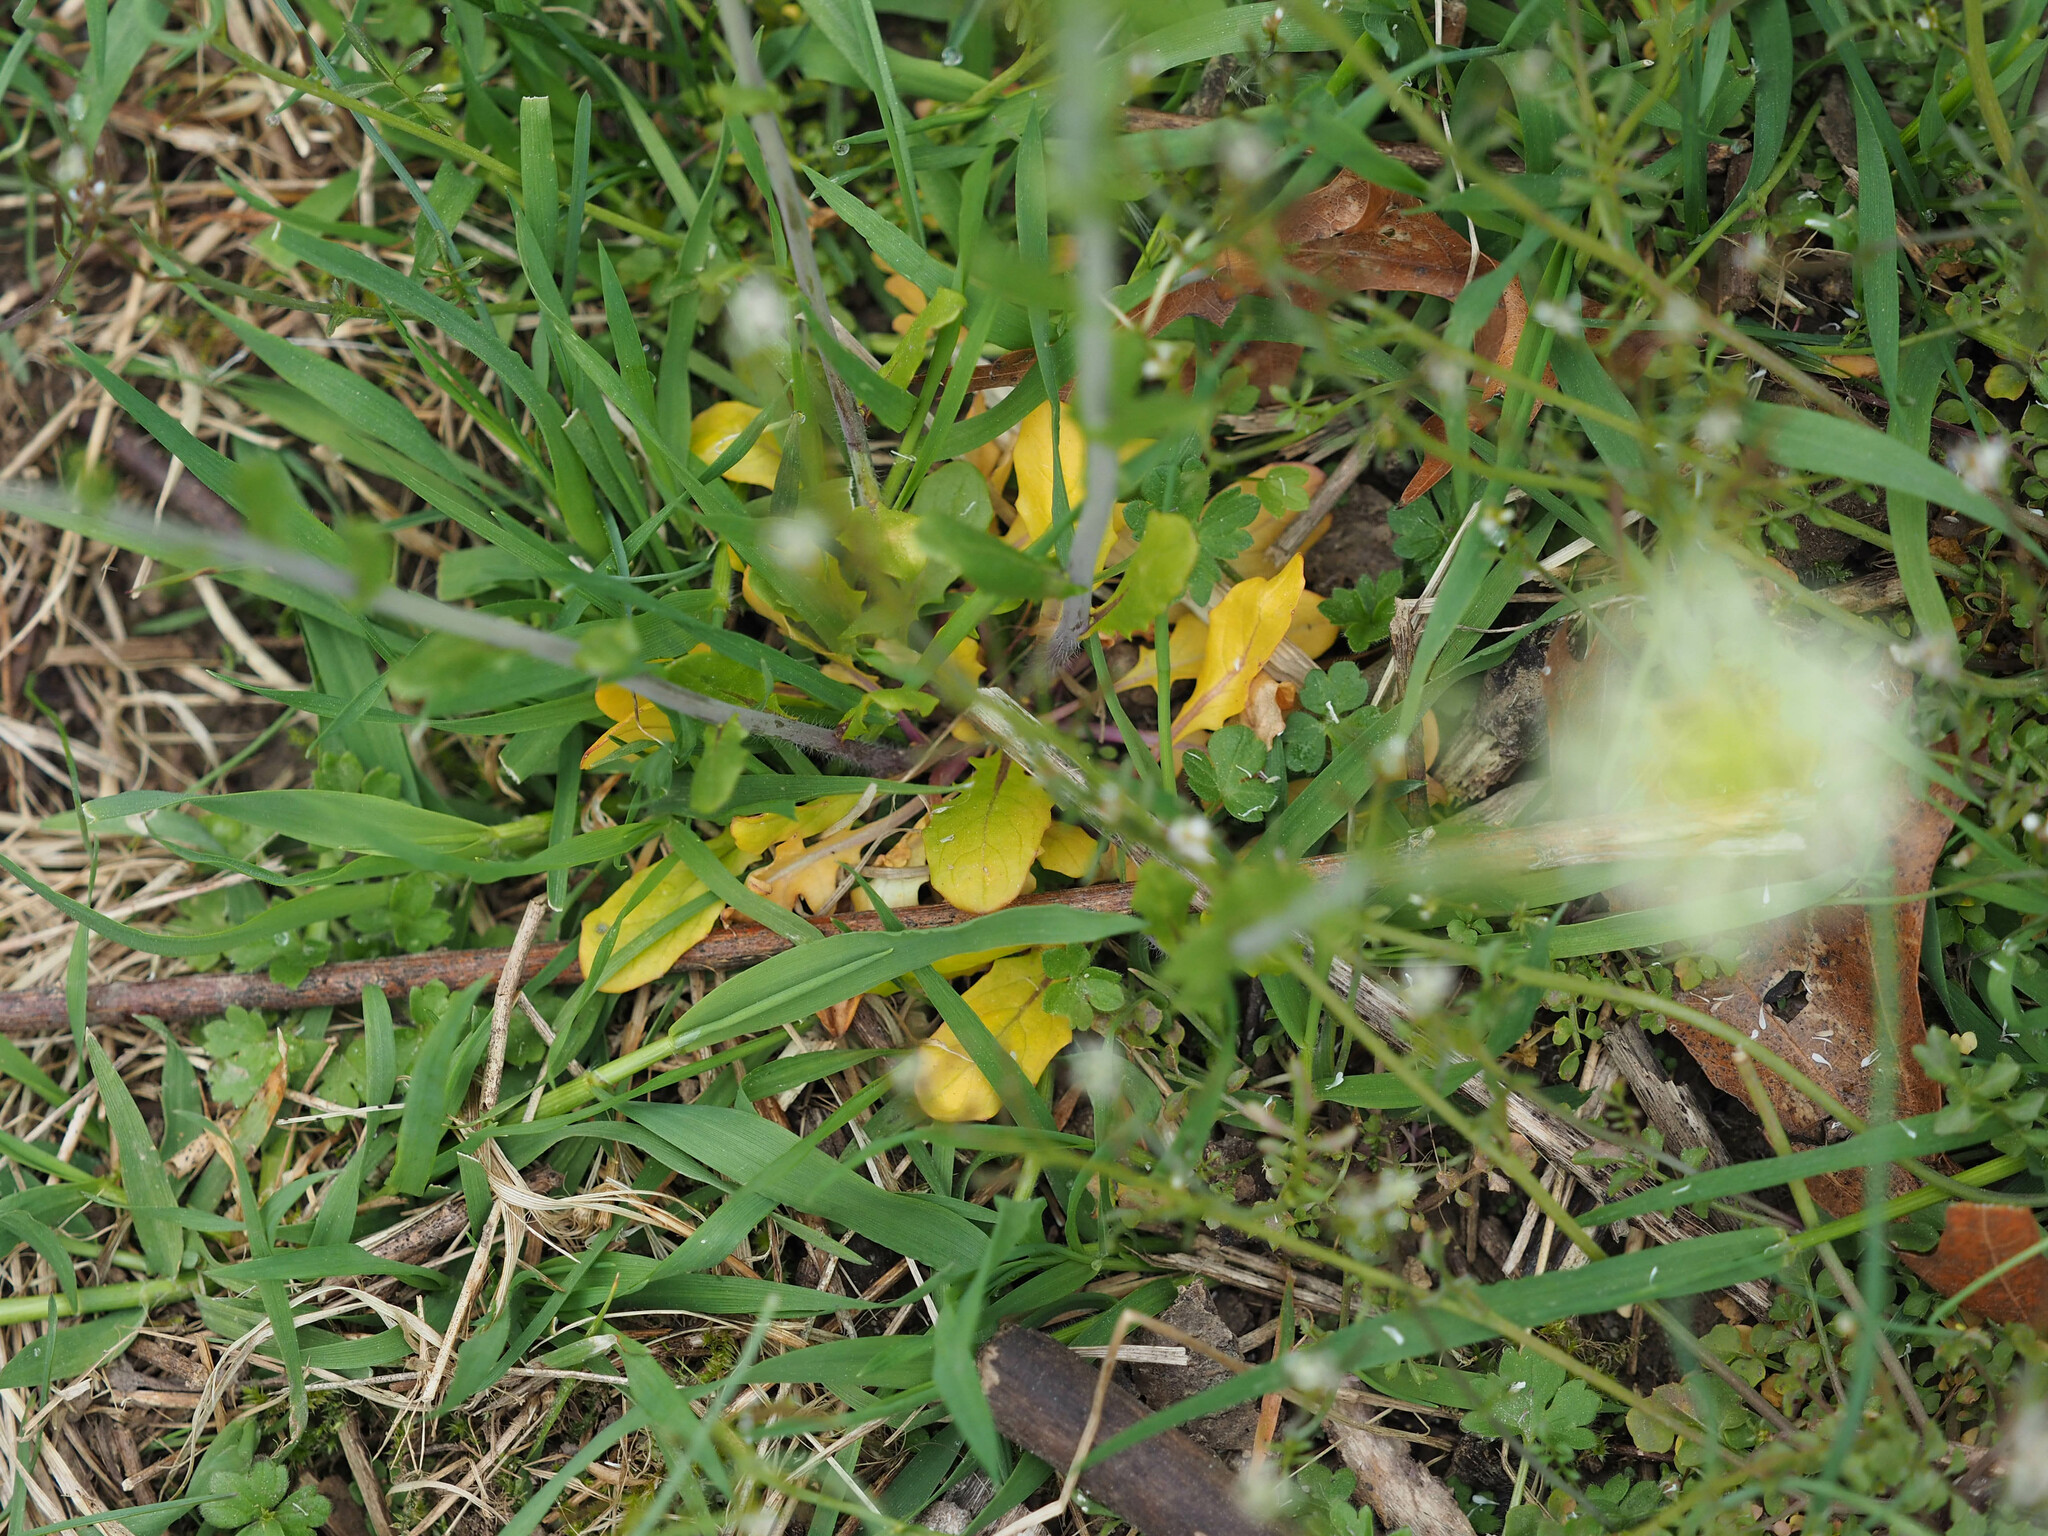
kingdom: Plantae
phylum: Tracheophyta
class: Magnoliopsida
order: Brassicales
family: Brassicaceae
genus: Mummenhoffia
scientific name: Mummenhoffia alliacea
